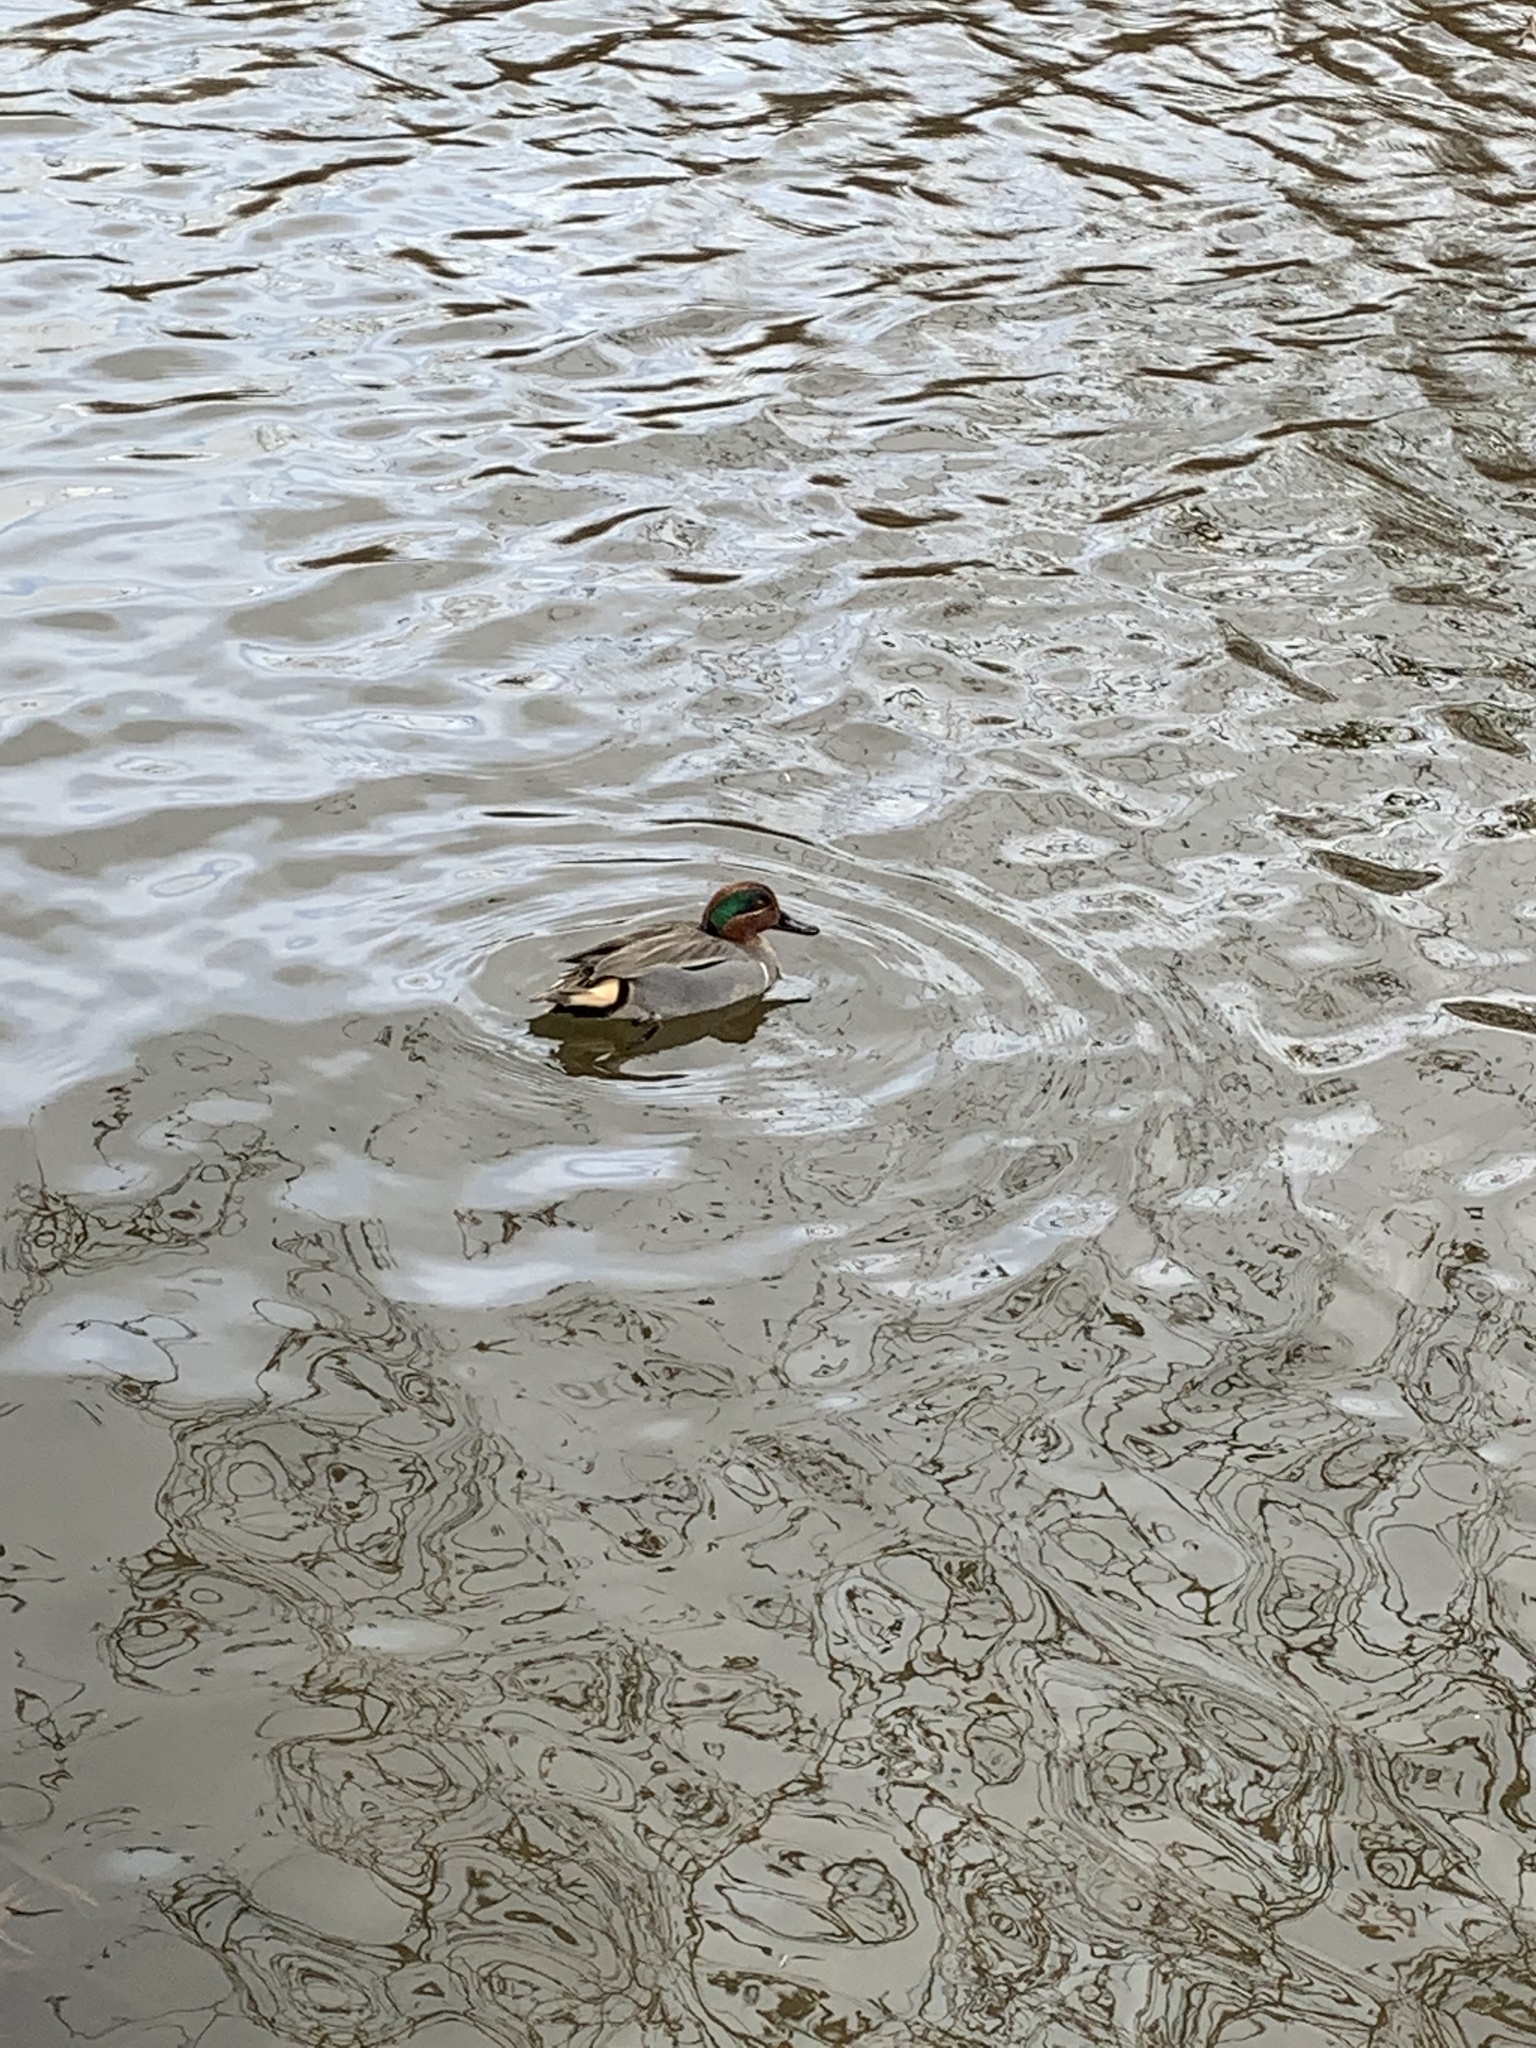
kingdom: Animalia
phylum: Chordata
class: Aves
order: Anseriformes
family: Anatidae
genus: Anas
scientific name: Anas crecca
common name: Eurasian teal
